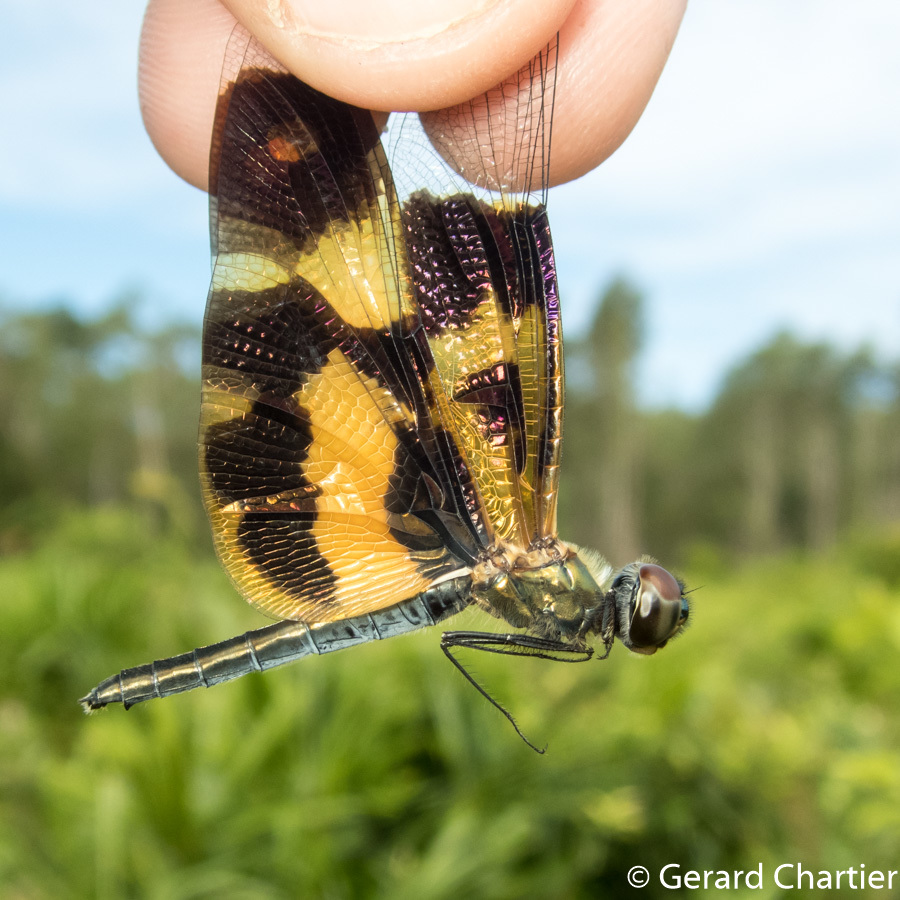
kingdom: Animalia
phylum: Arthropoda
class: Insecta
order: Odonata
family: Libellulidae
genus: Rhyothemis
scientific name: Rhyothemis variegata
